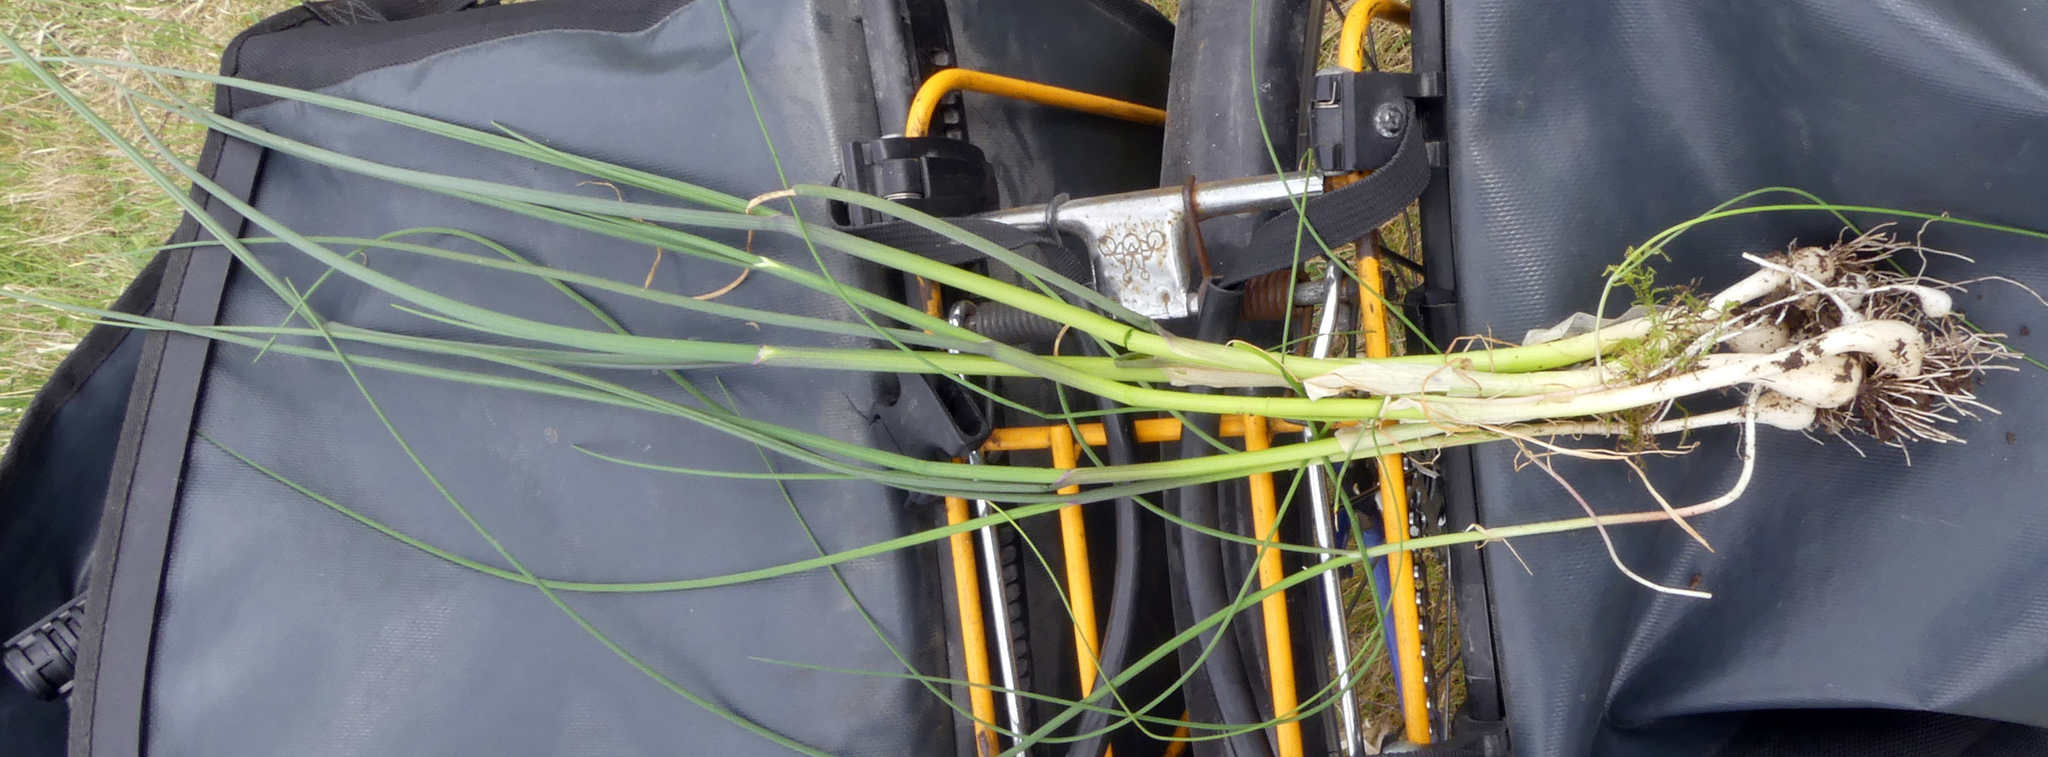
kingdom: Plantae
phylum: Tracheophyta
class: Liliopsida
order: Asparagales
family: Amaryllidaceae
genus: Allium
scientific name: Allium schoenoprasum
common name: Chives
